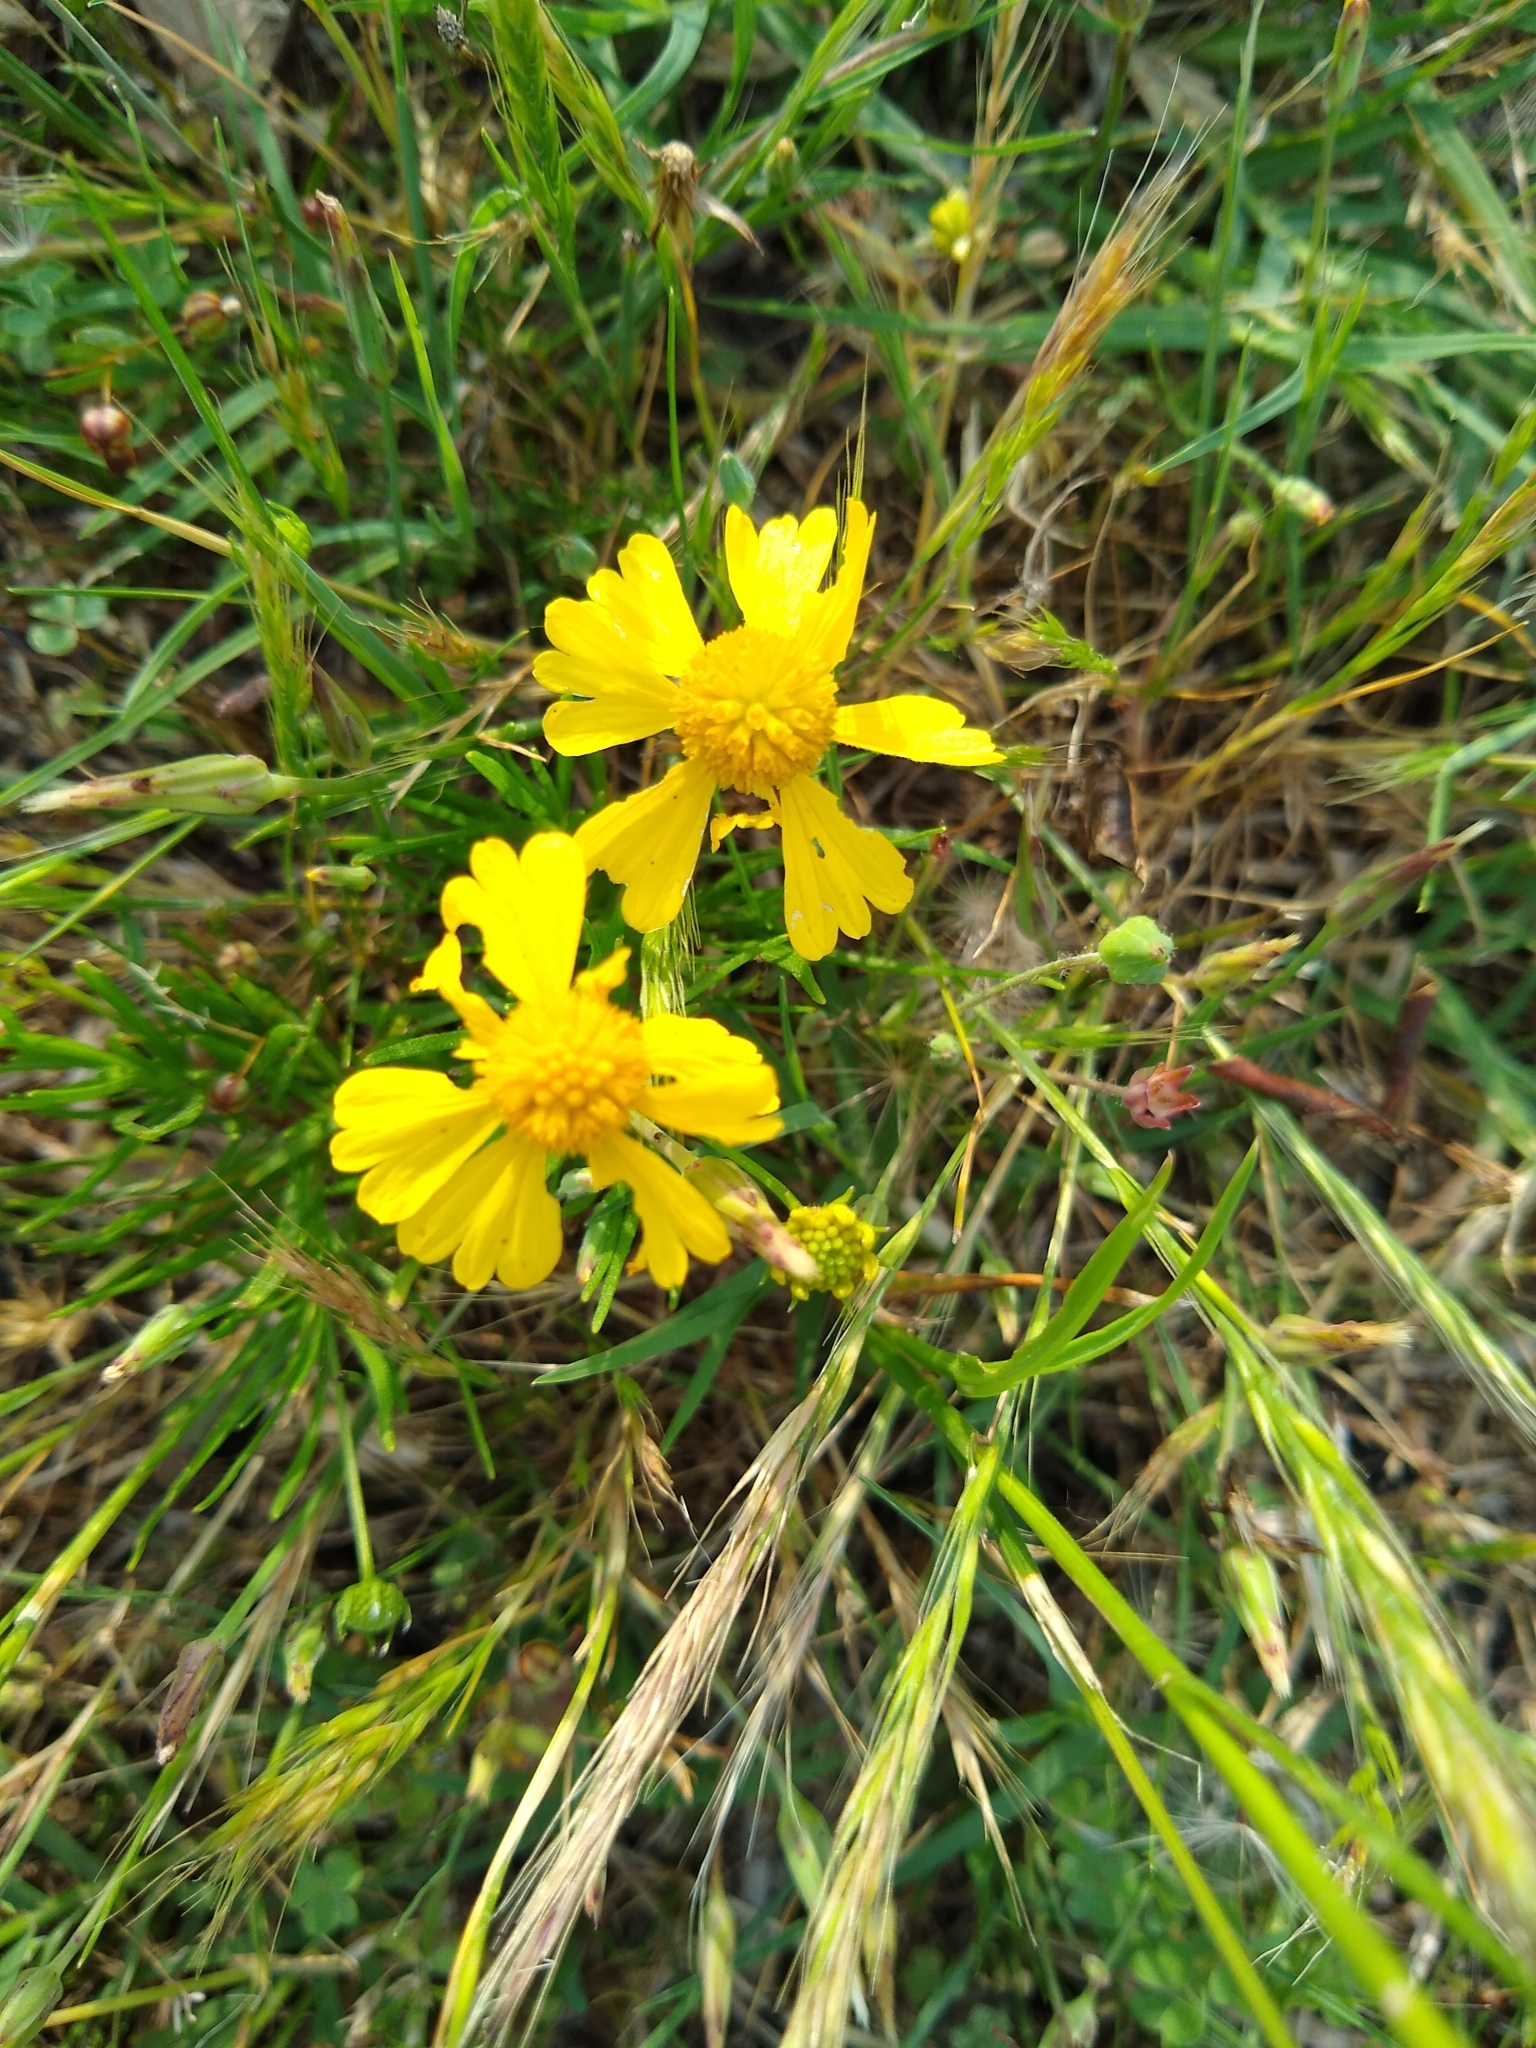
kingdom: Plantae
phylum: Tracheophyta
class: Magnoliopsida
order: Asterales
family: Asteraceae
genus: Helenium
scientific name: Helenium amarum
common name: Bitter sneezeweed
